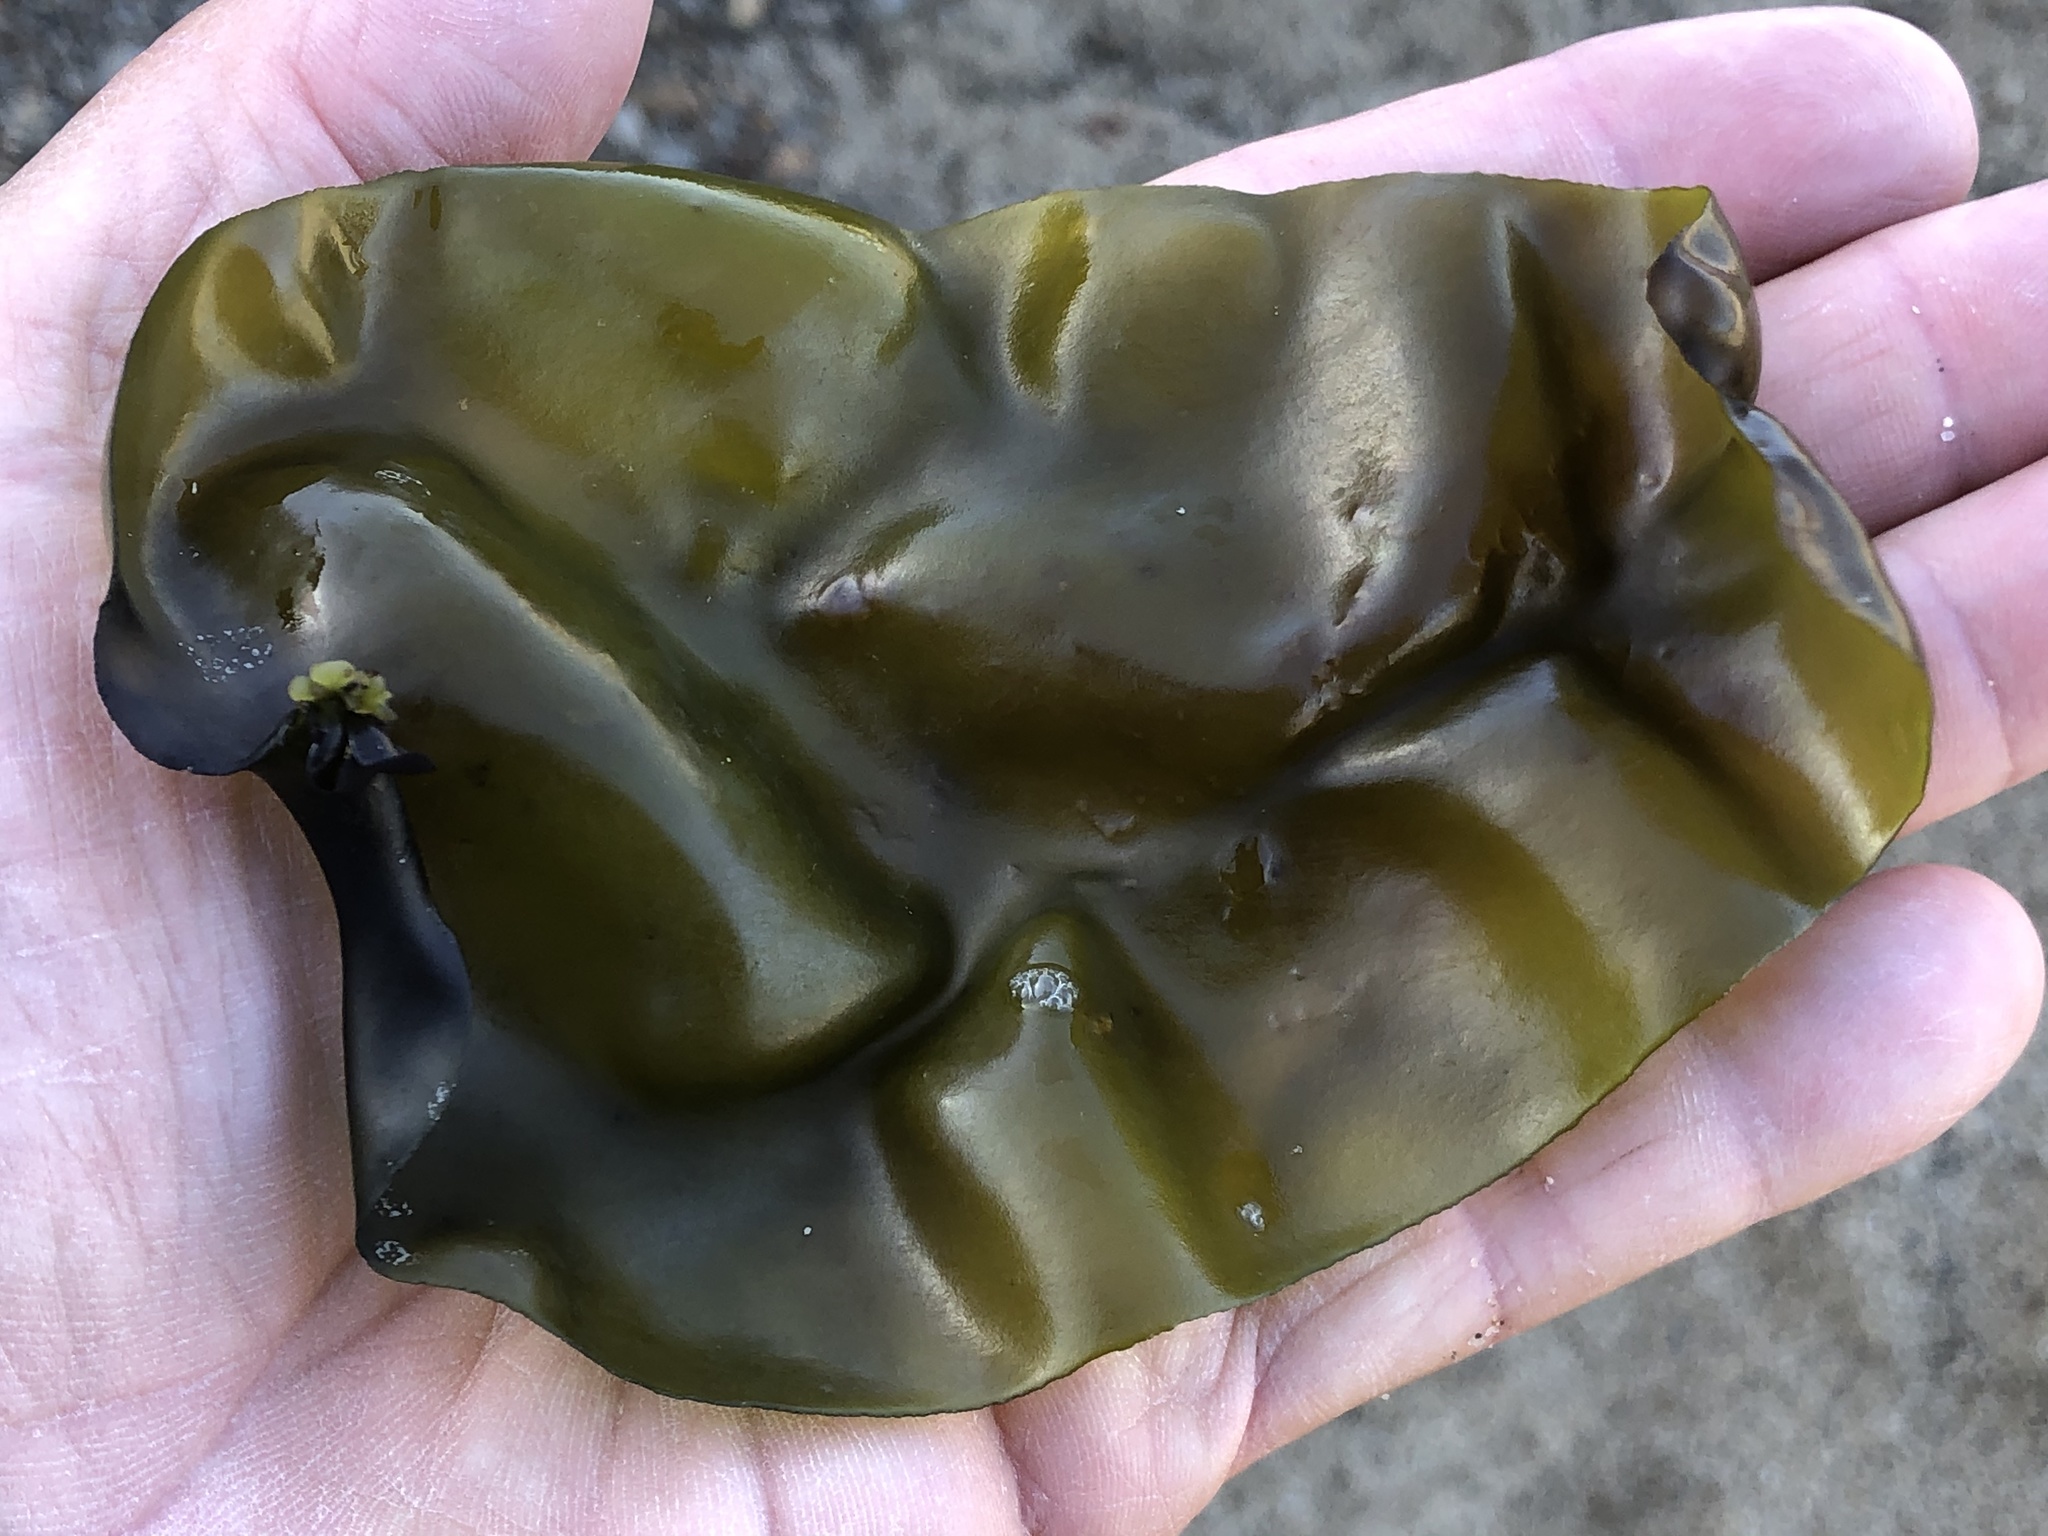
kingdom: Plantae
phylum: Rhodophyta
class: Florideophyceae
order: Gigartinales
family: Gigartinaceae
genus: Mazzaella
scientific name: Mazzaella flaccida
